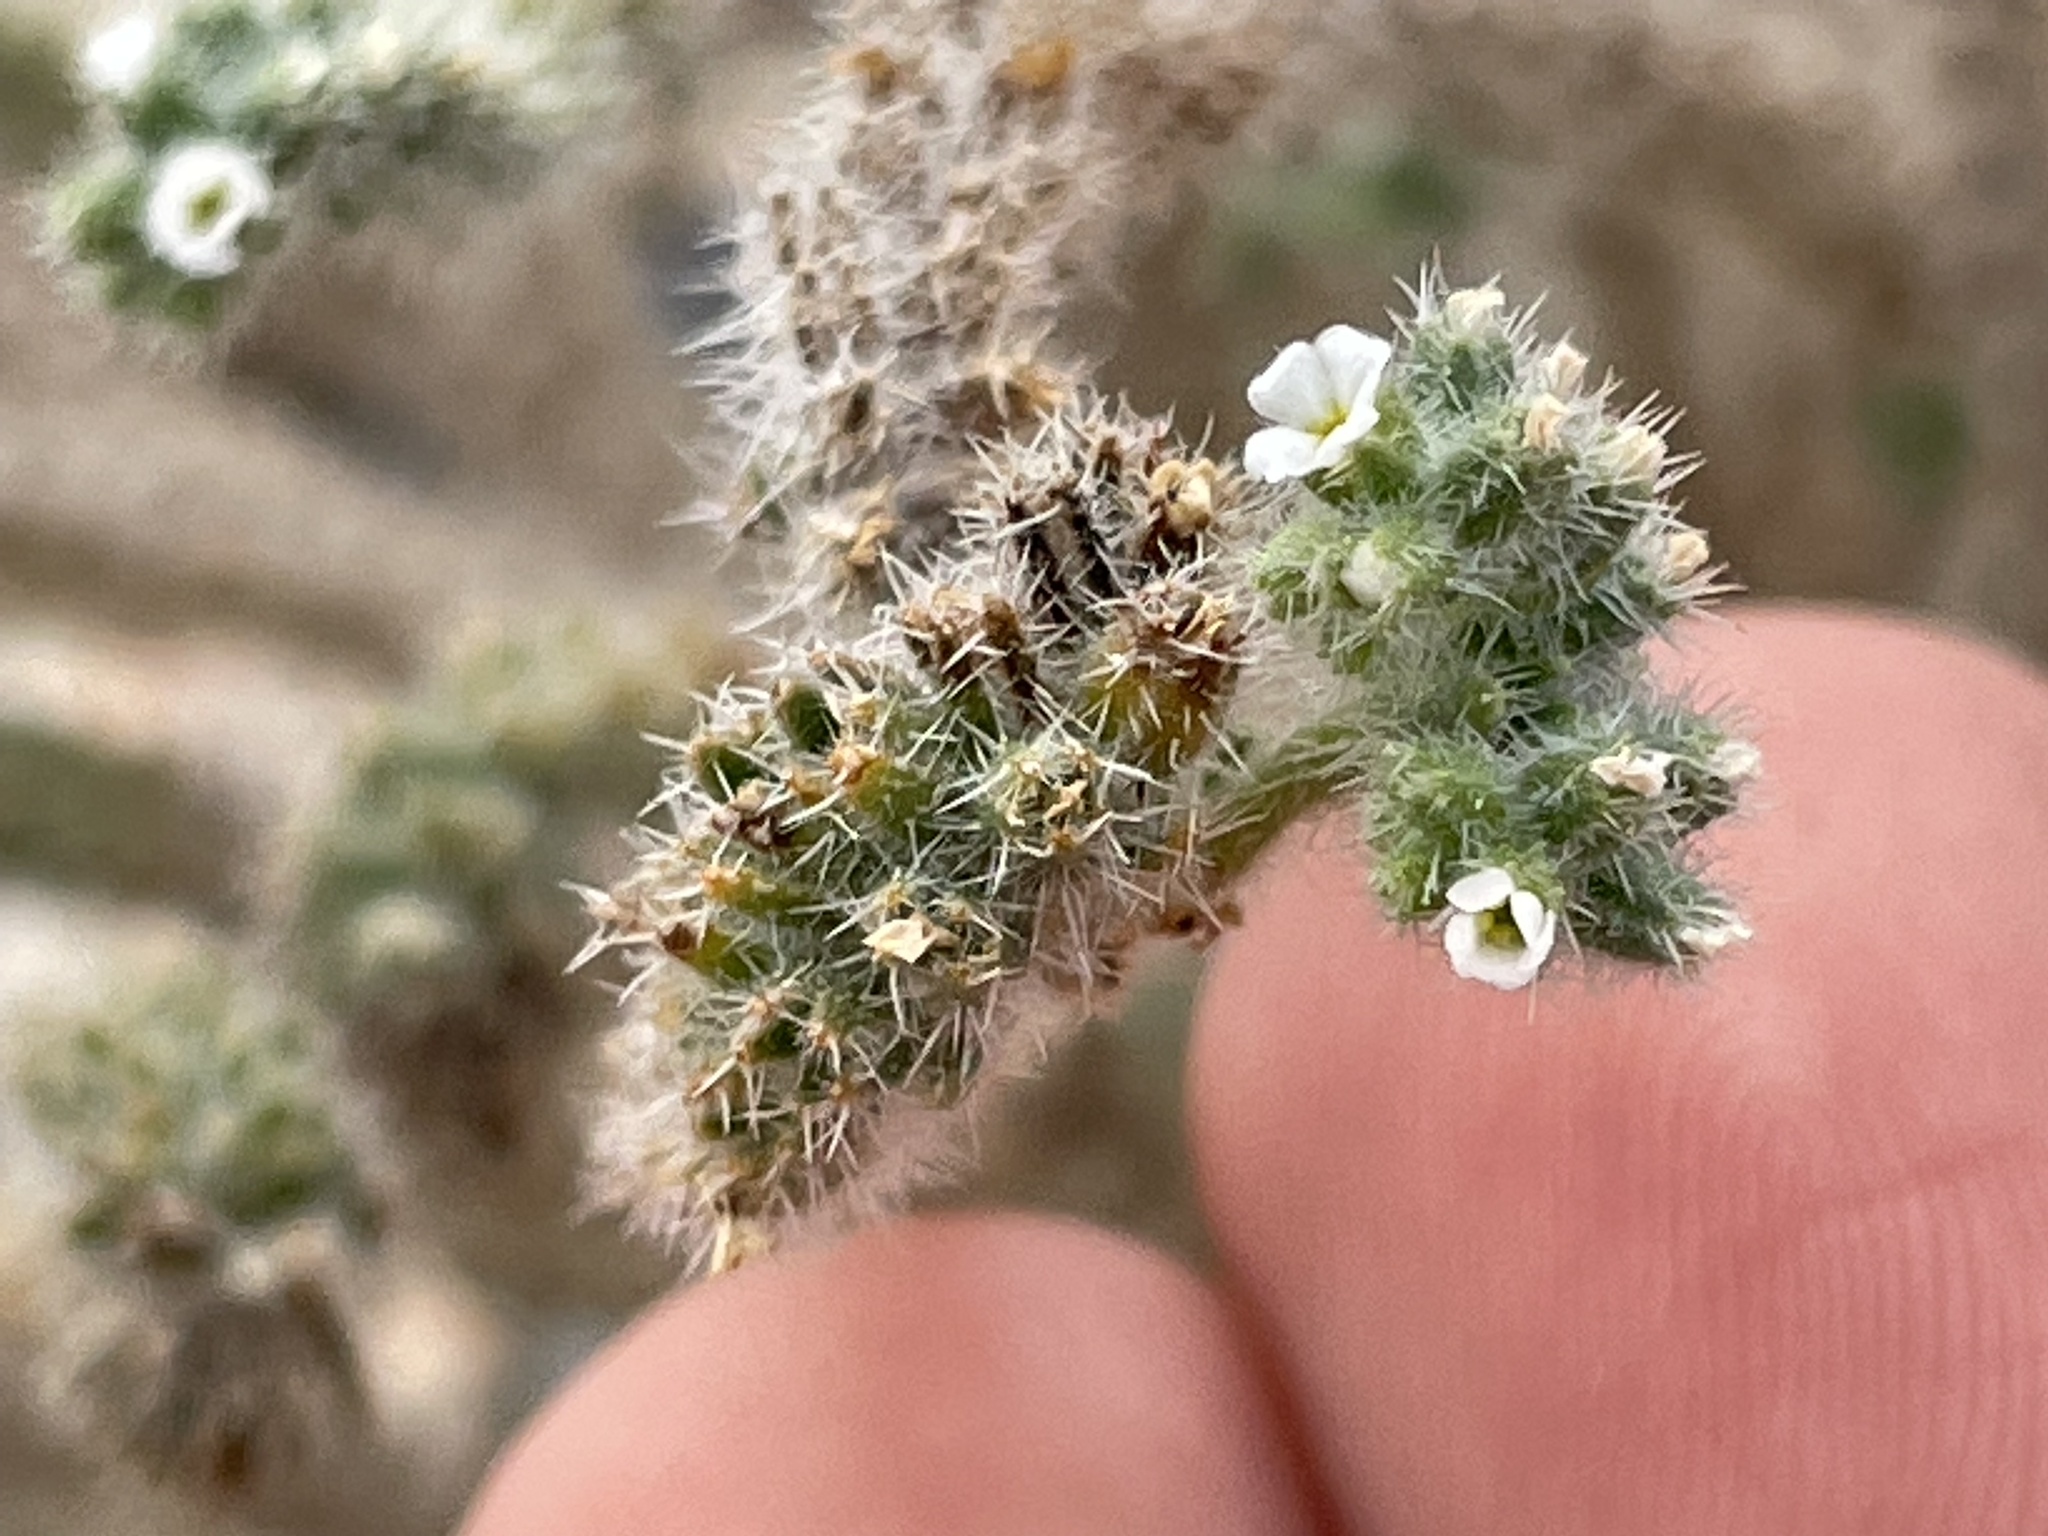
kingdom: Plantae
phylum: Tracheophyta
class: Magnoliopsida
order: Boraginales
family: Boraginaceae
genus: Johnstonella
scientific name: Johnstonella angustifolia
